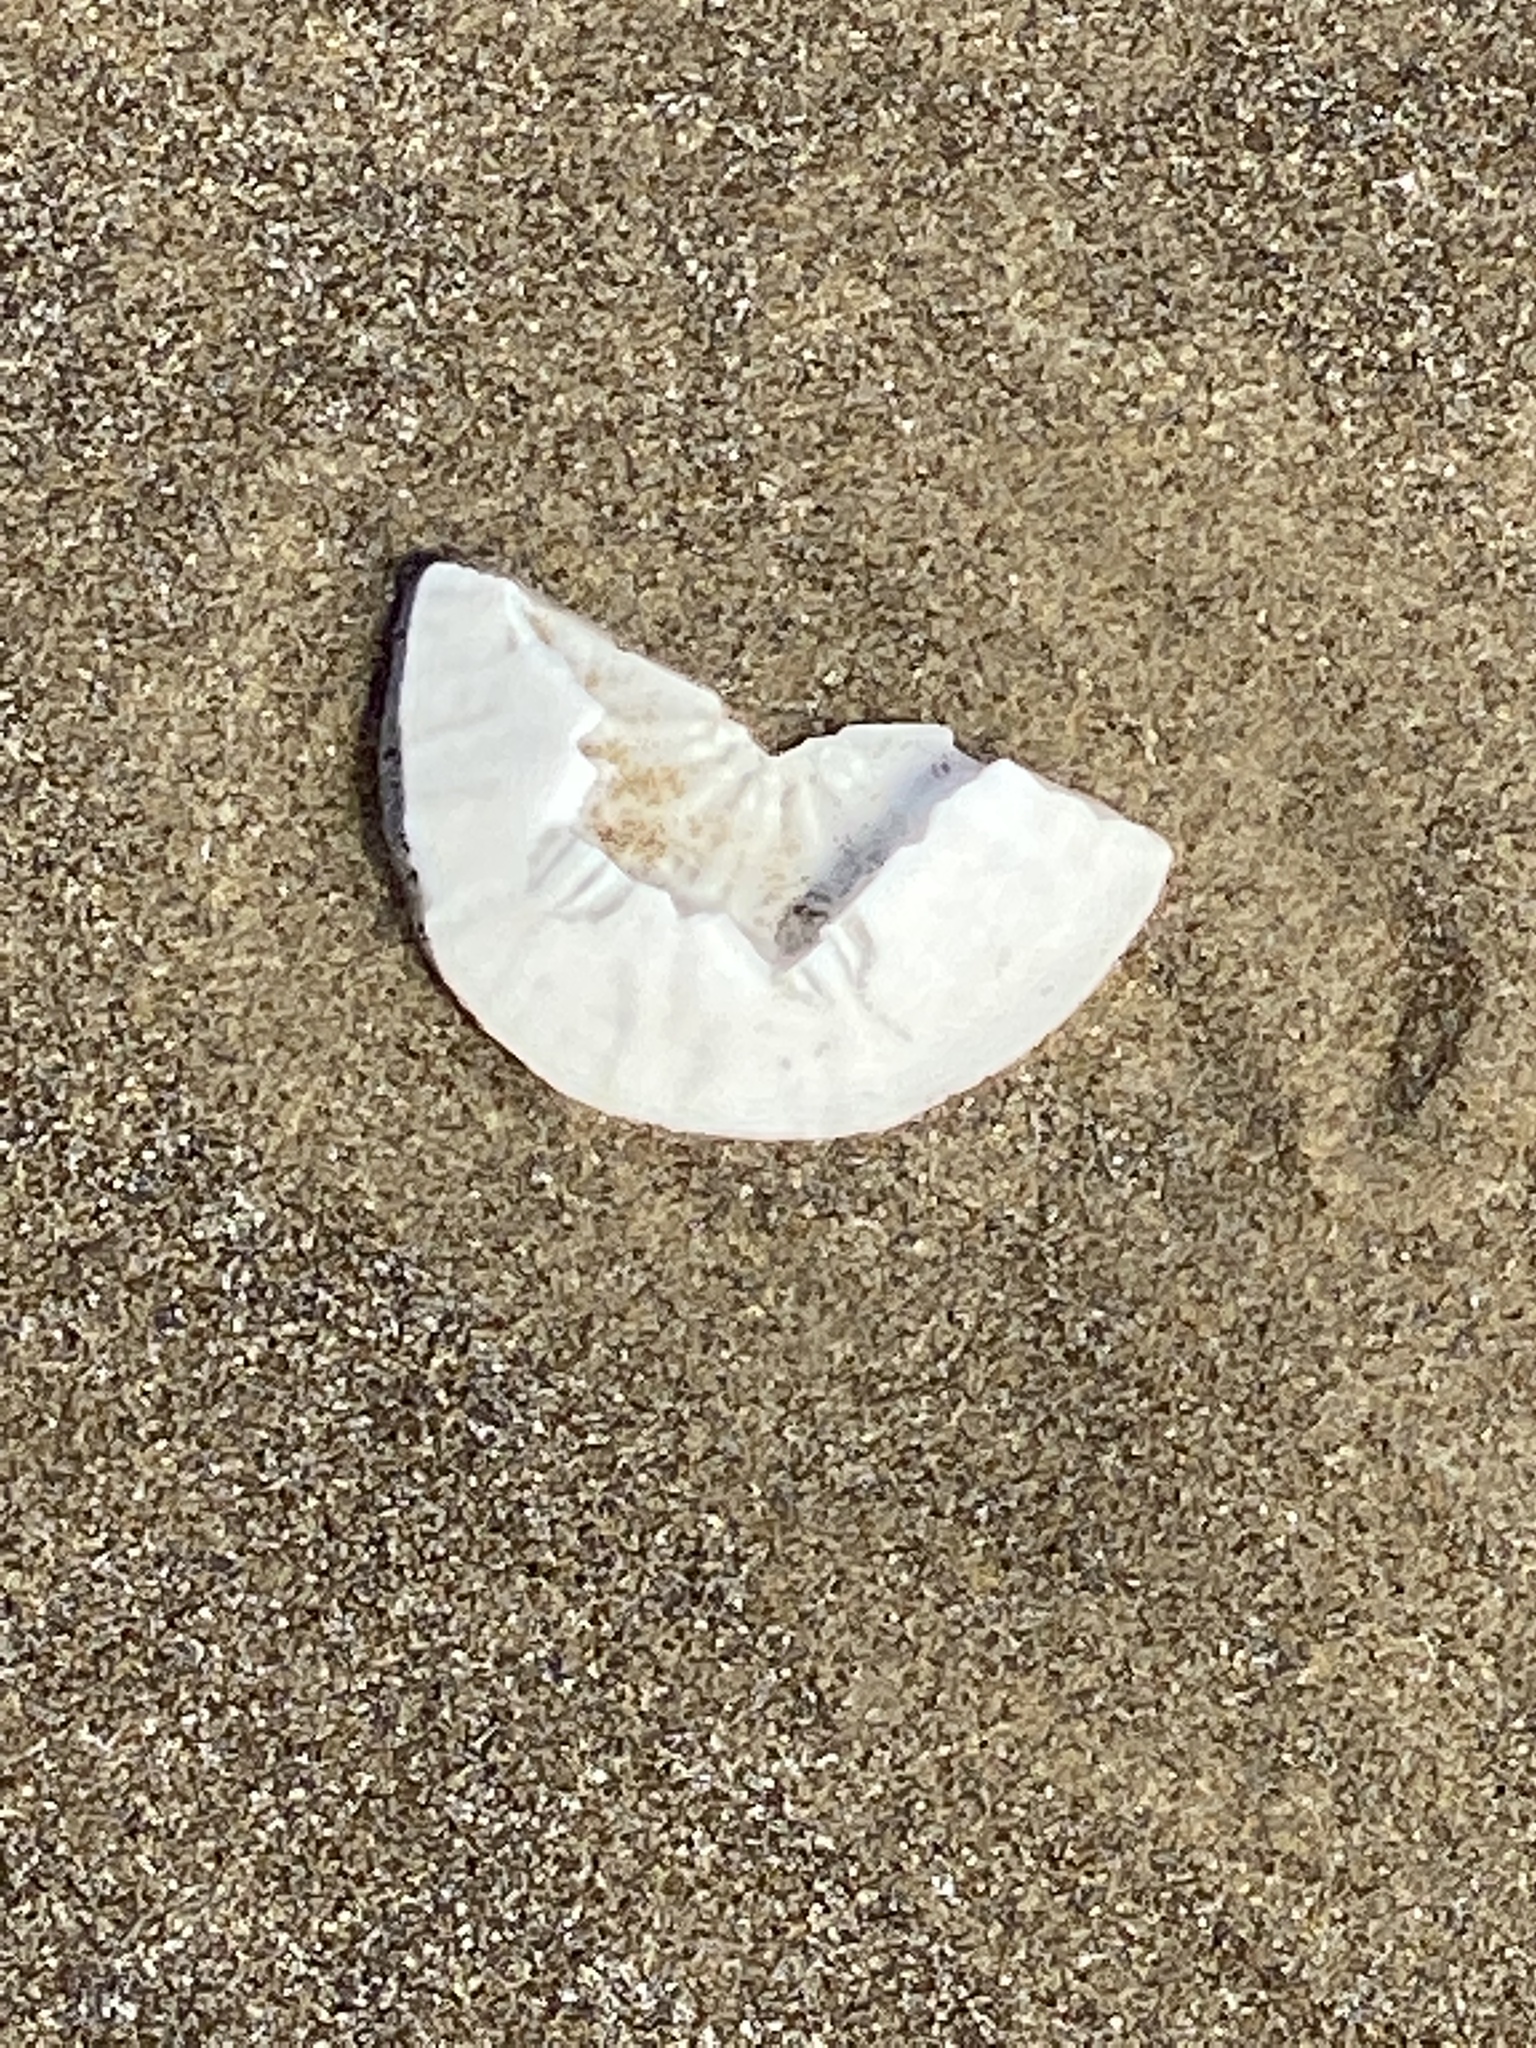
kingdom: Animalia
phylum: Echinodermata
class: Echinoidea
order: Echinolampadacea
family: Dendrasteridae
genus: Dendraster
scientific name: Dendraster excentricus
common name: Eccentric sand dollar sea urchin
